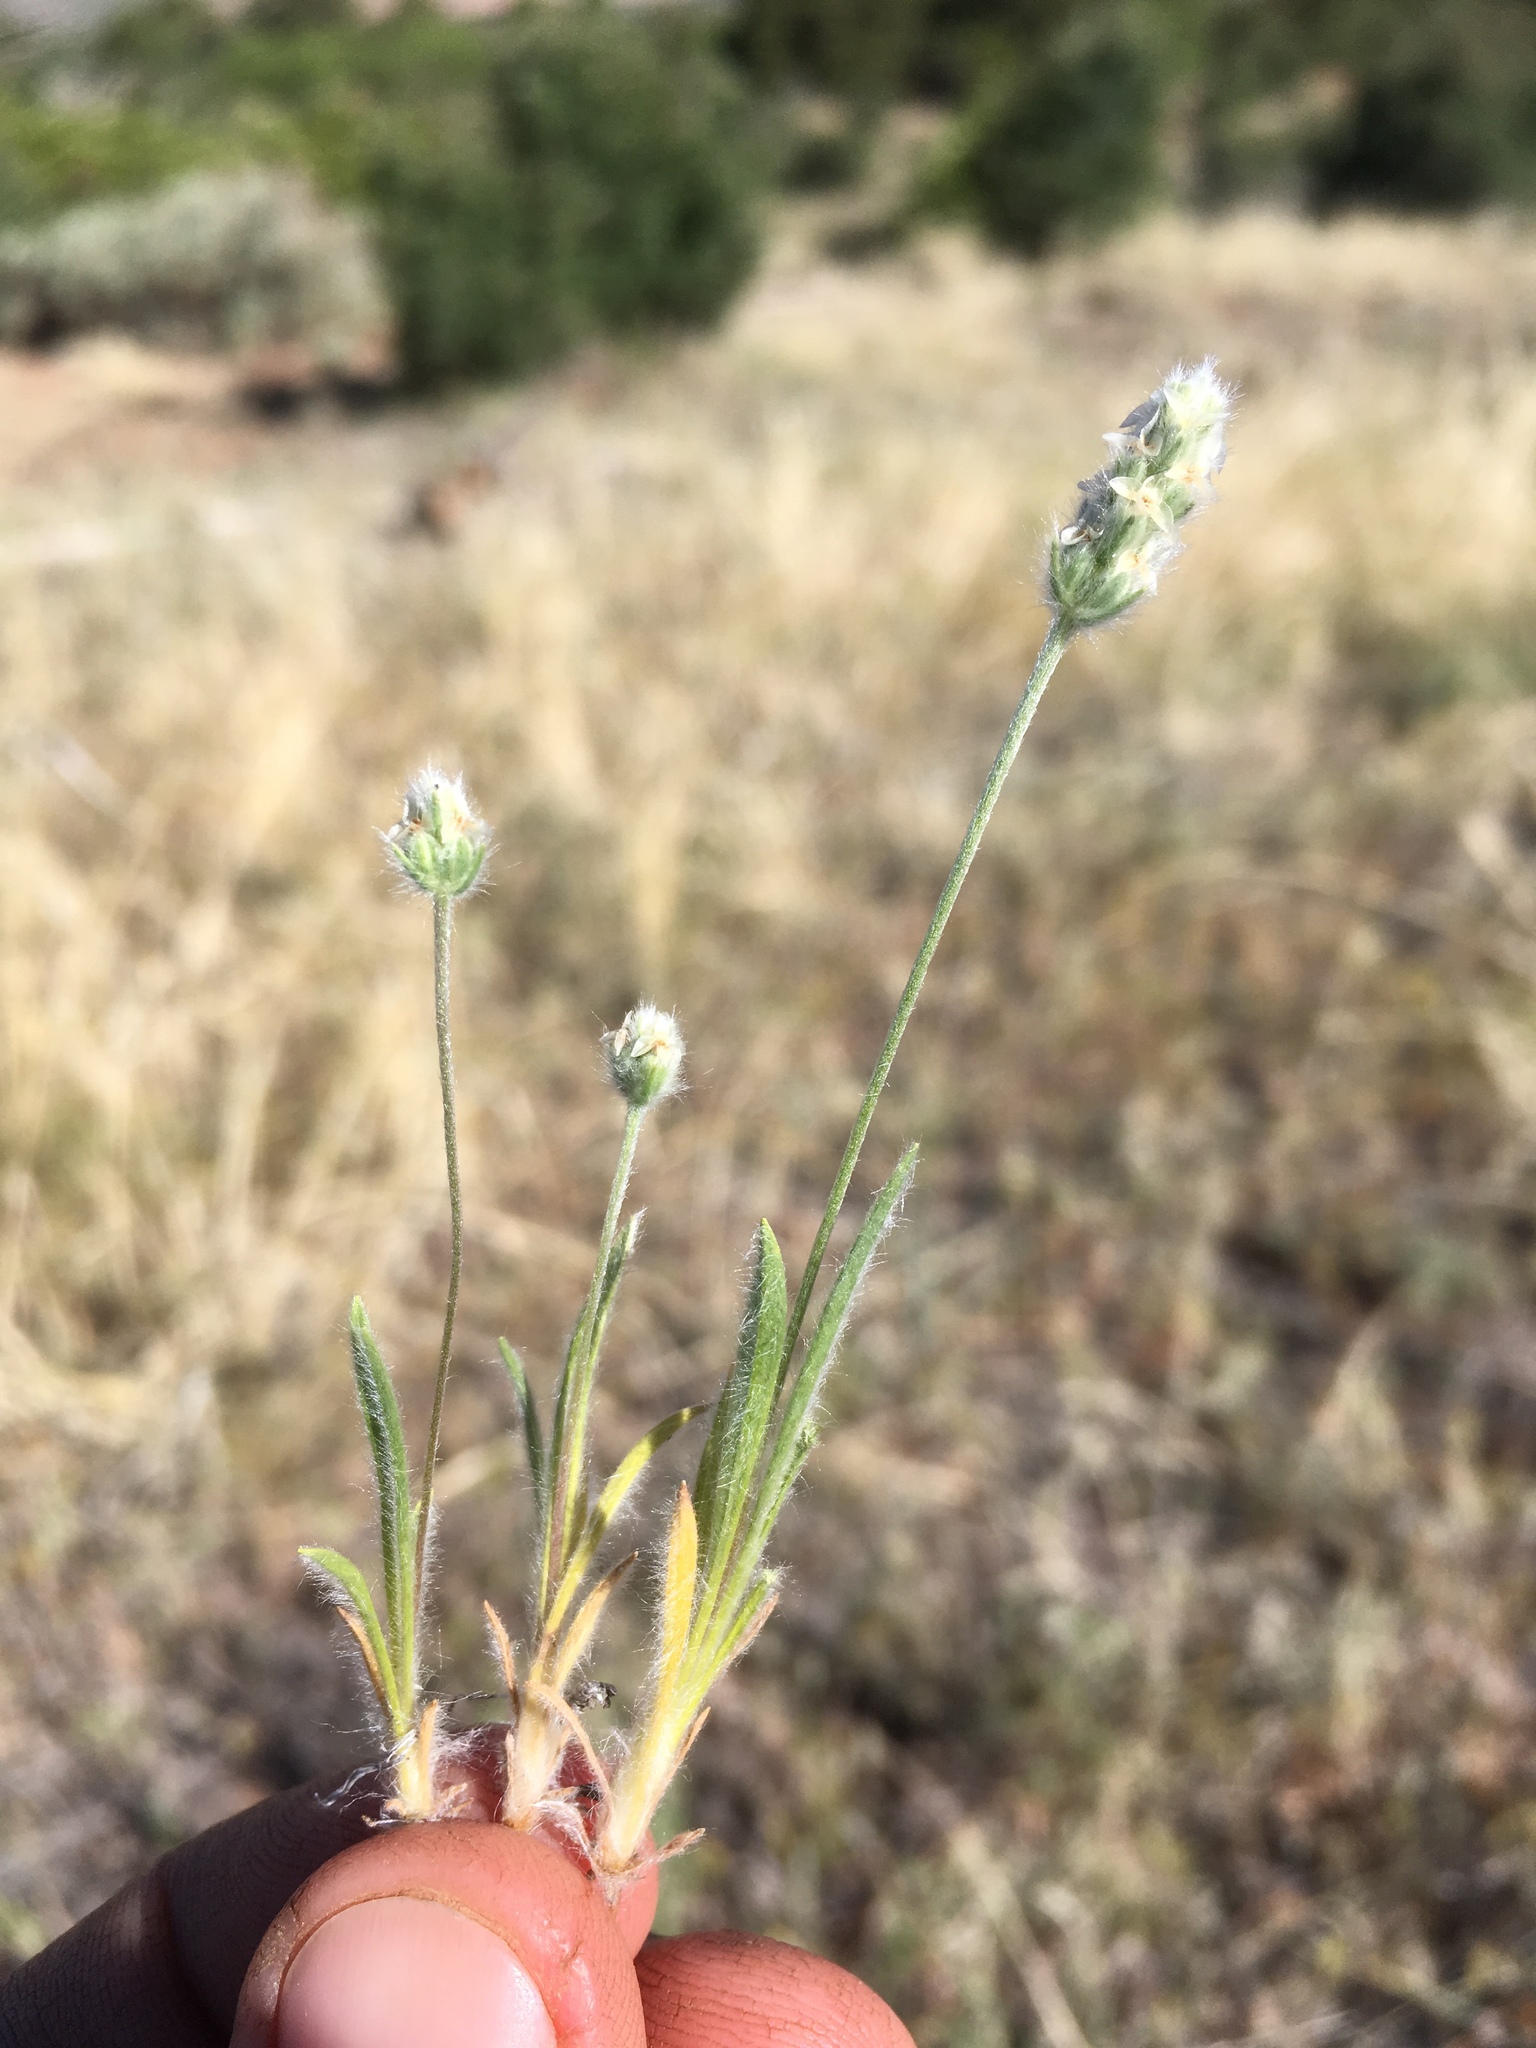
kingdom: Plantae
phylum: Tracheophyta
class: Magnoliopsida
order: Lamiales
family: Plantaginaceae
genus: Plantago
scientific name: Plantago patagonica
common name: Patagonia indian-wheat
